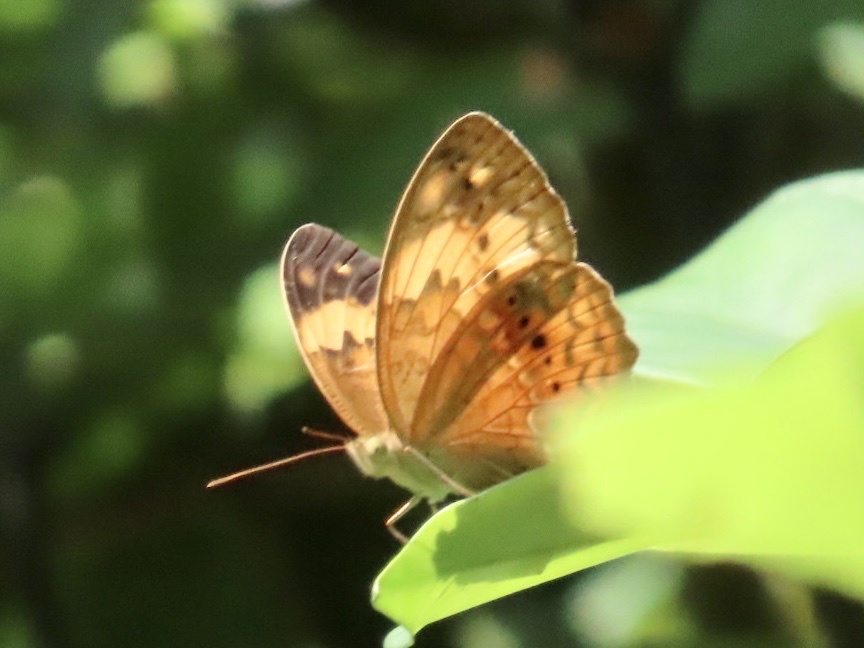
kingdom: Animalia
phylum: Arthropoda
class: Insecta
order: Lepidoptera
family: Nymphalidae
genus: Cupha
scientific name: Cupha erymanthis
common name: Rustic
